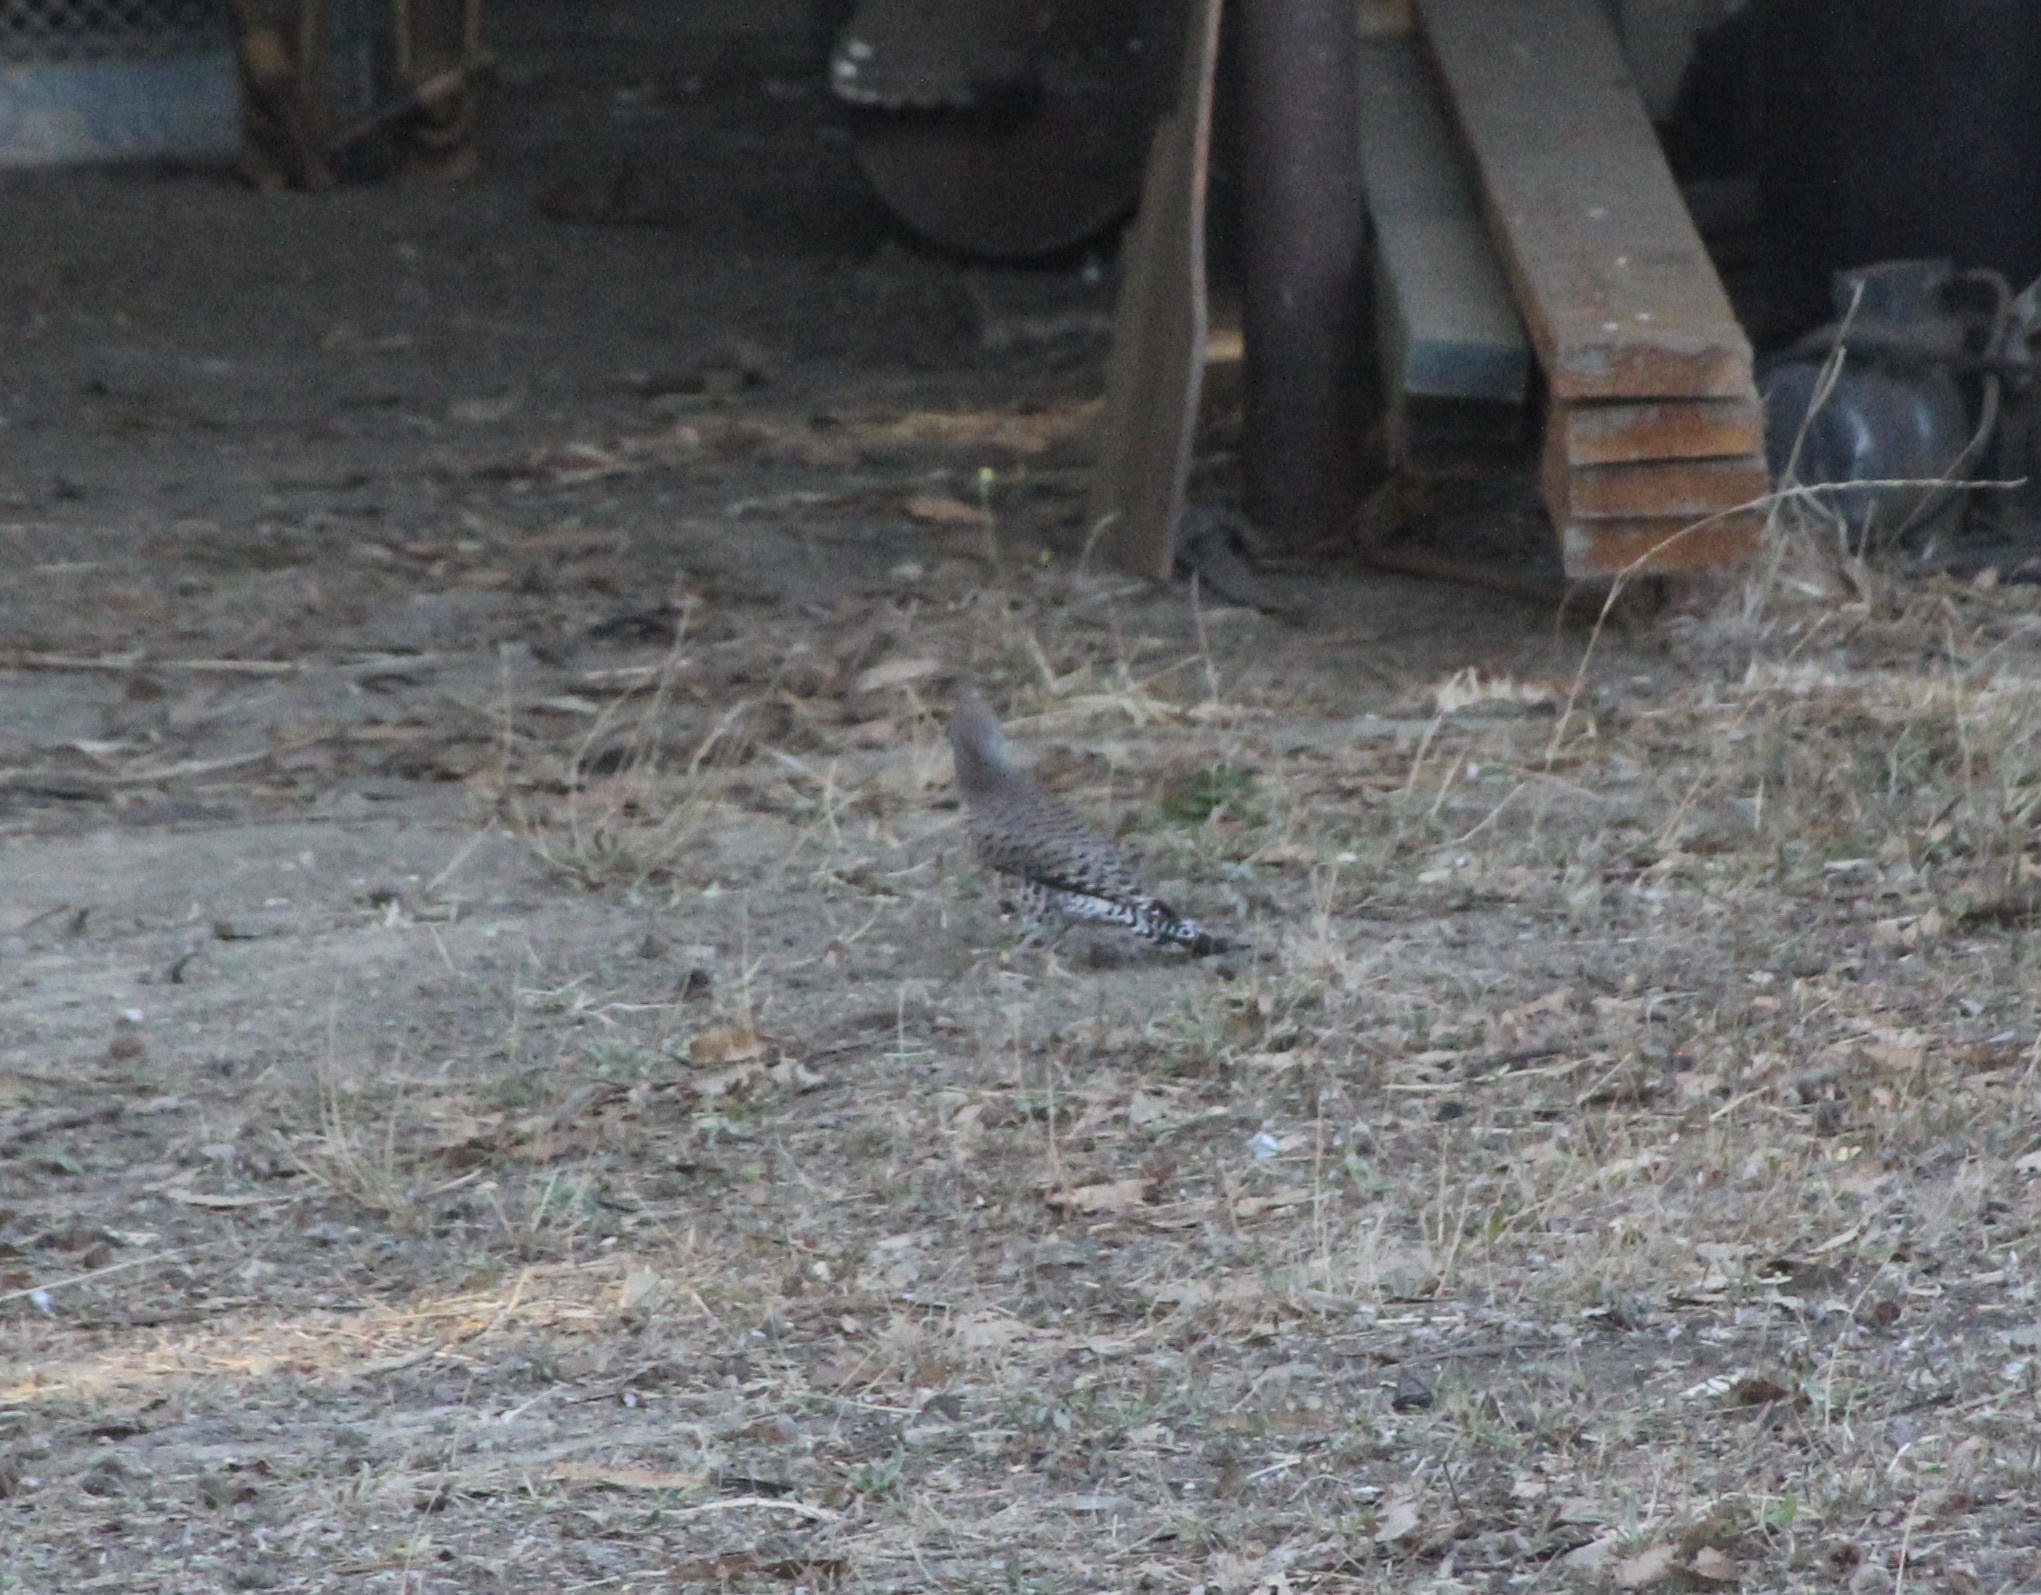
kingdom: Animalia
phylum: Chordata
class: Aves
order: Piciformes
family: Picidae
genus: Colaptes
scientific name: Colaptes auratus
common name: Northern flicker
